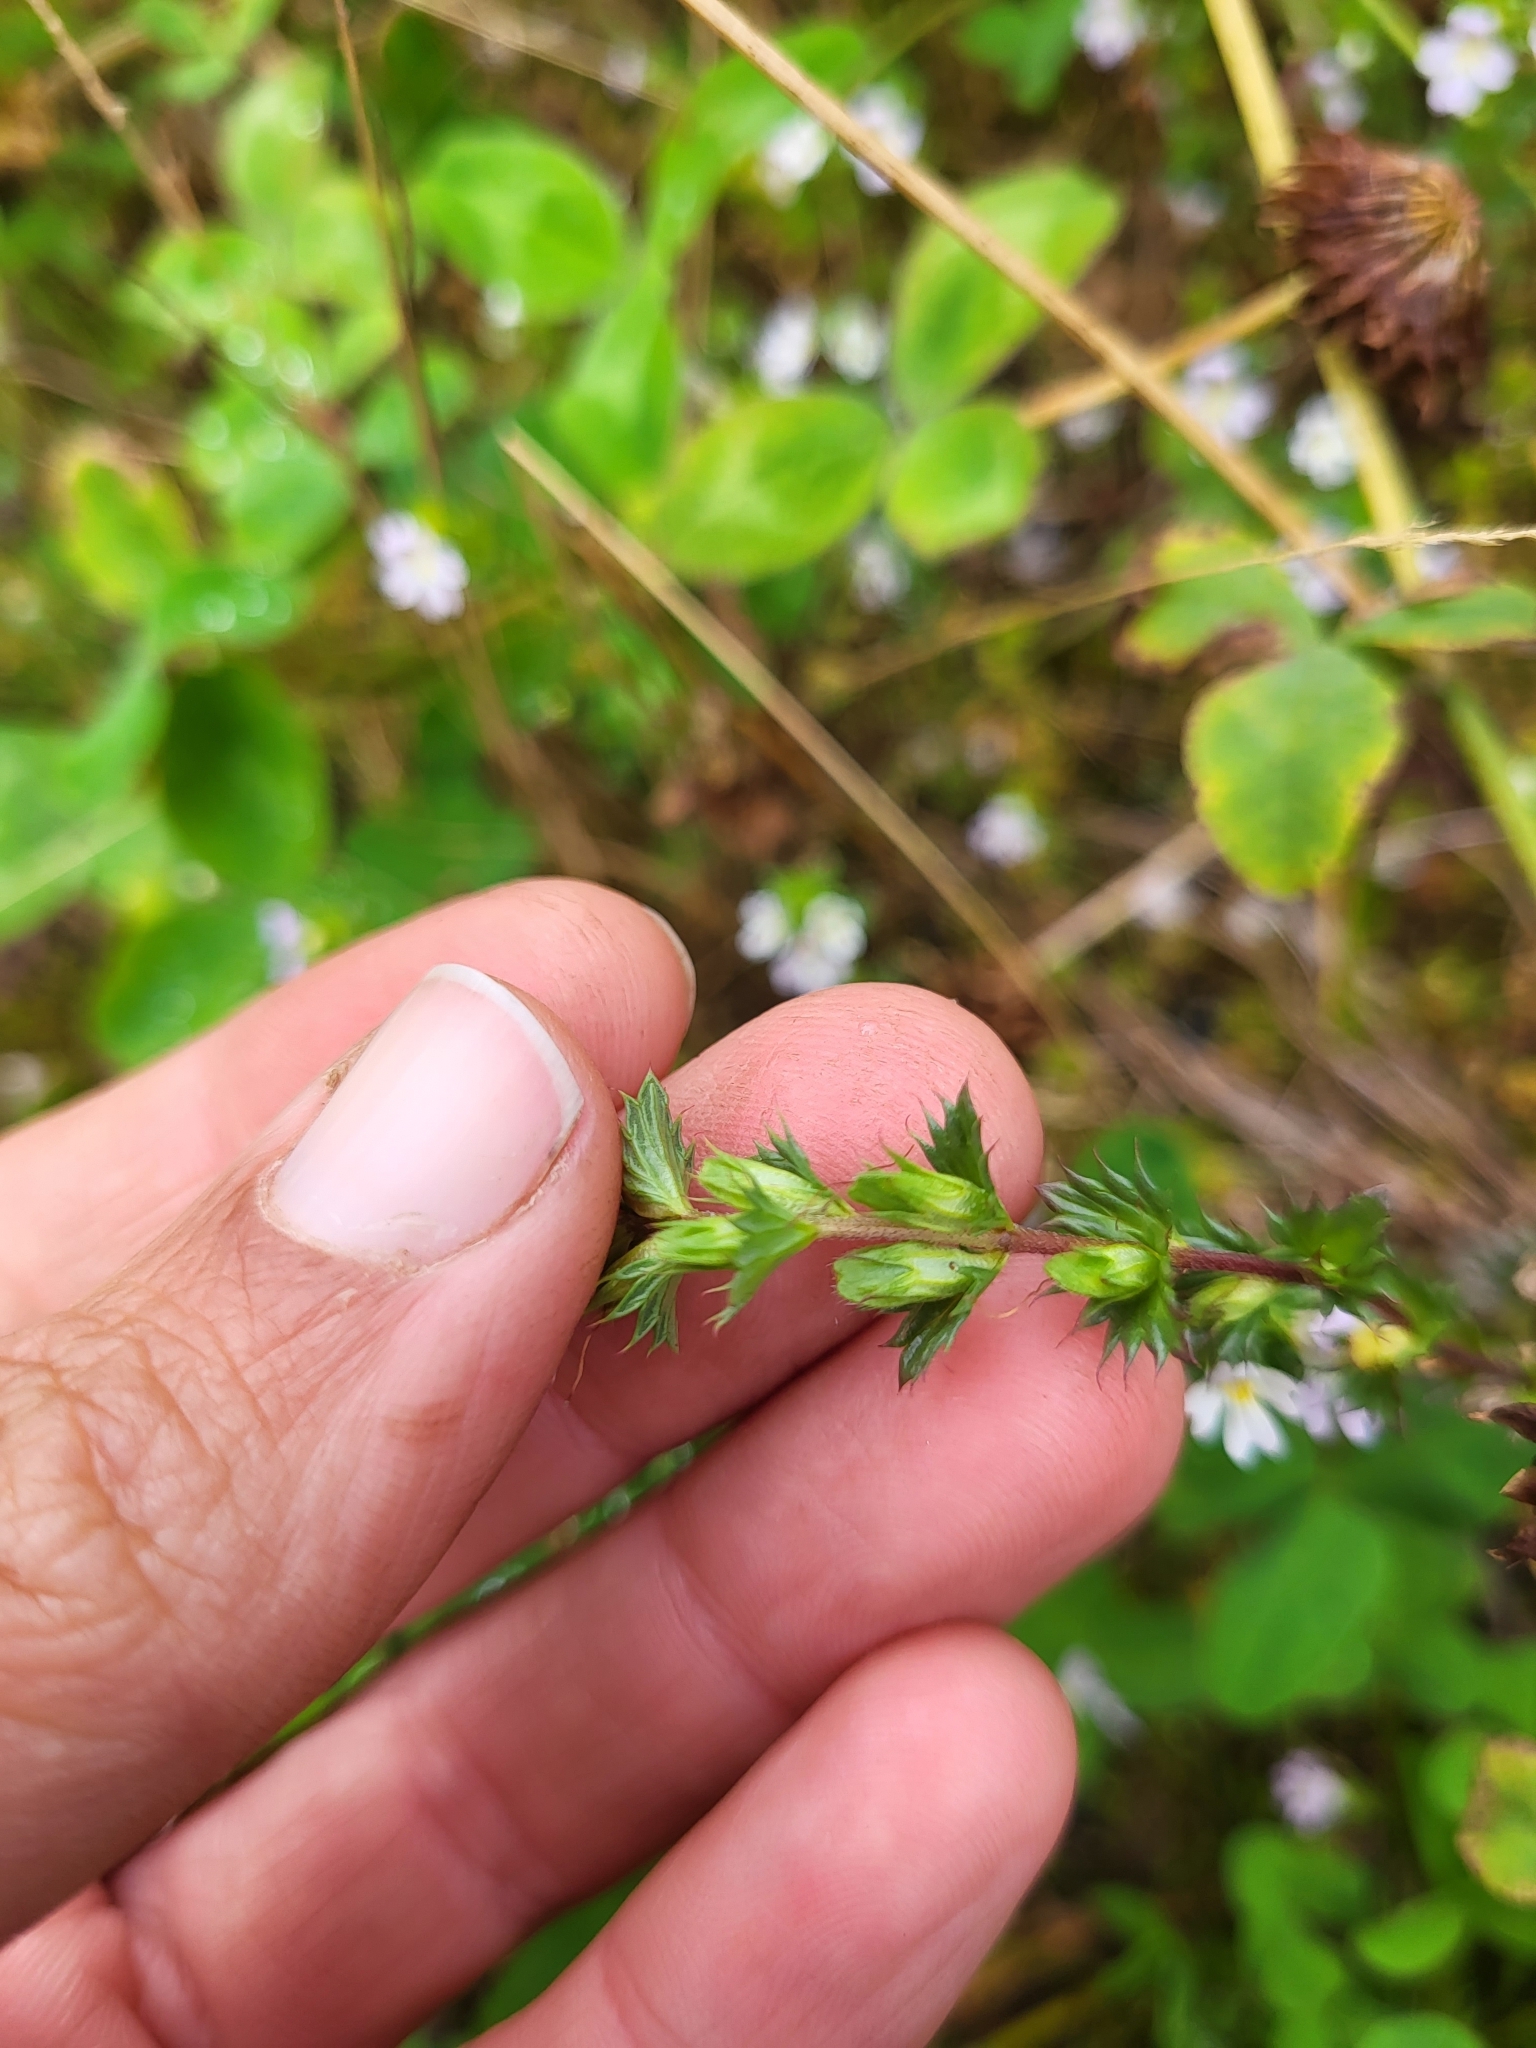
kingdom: Plantae
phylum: Tracheophyta
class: Magnoliopsida
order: Lamiales
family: Orobanchaceae
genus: Euphrasia
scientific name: Euphrasia nemorosa
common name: Common eyebright
